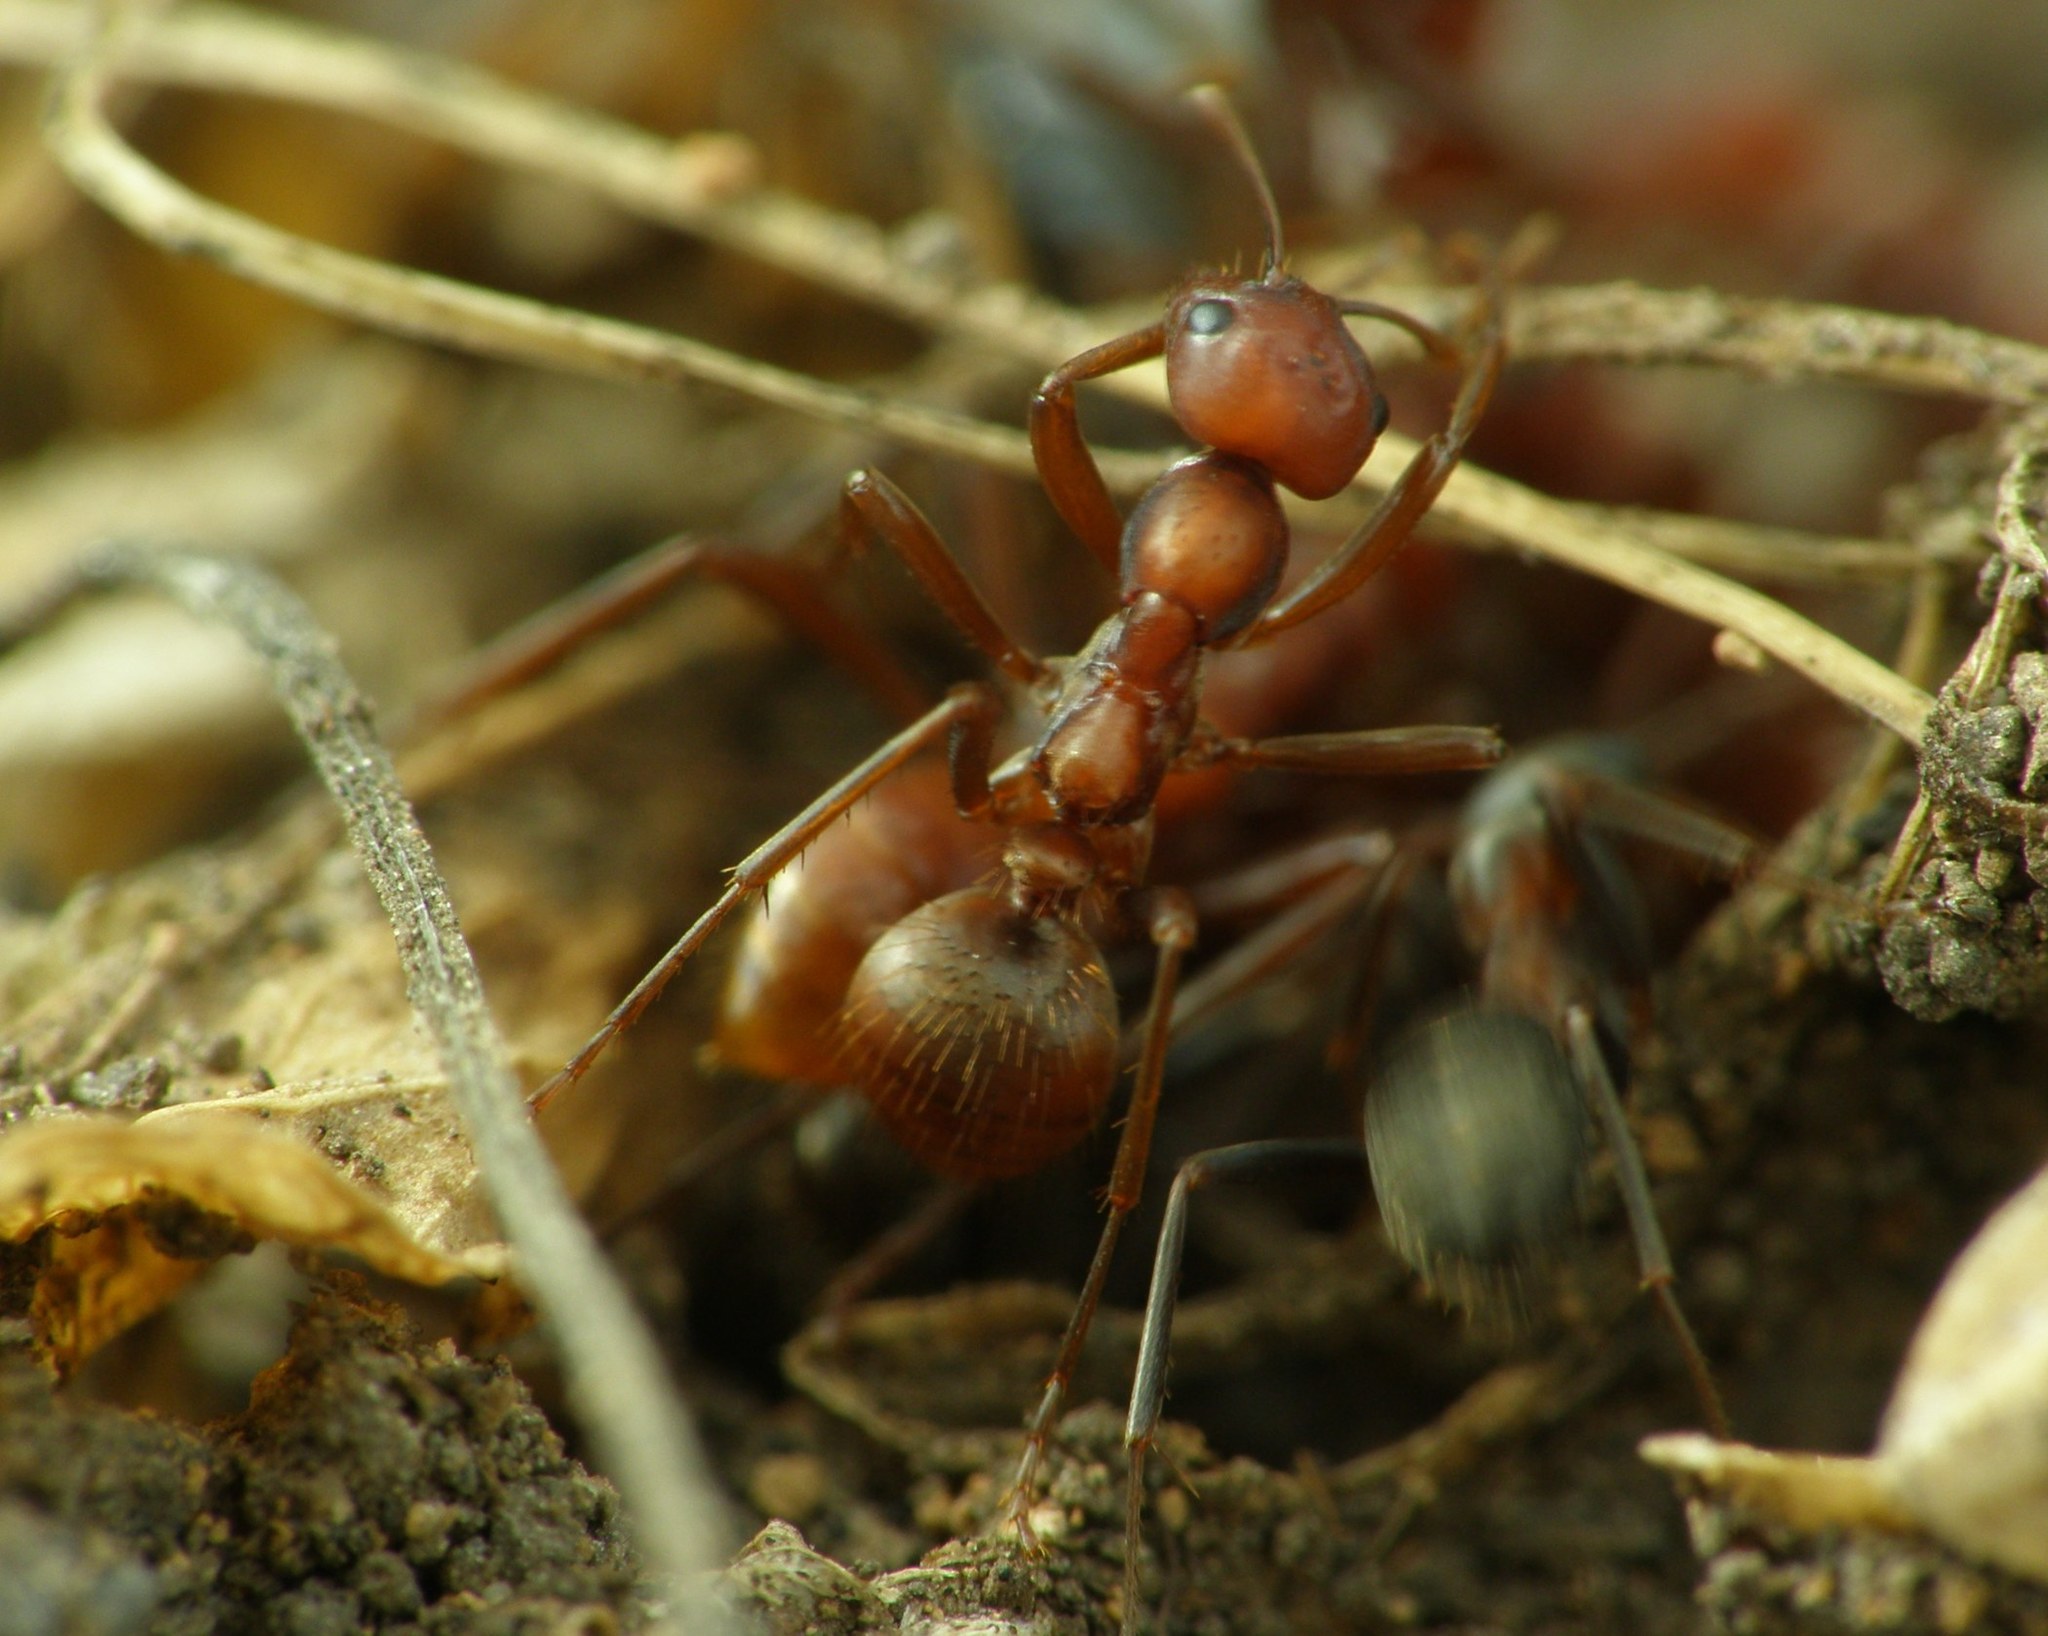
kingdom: Animalia
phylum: Arthropoda
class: Insecta
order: Hymenoptera
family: Formicidae
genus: Polyergus
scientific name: Polyergus rufescens
